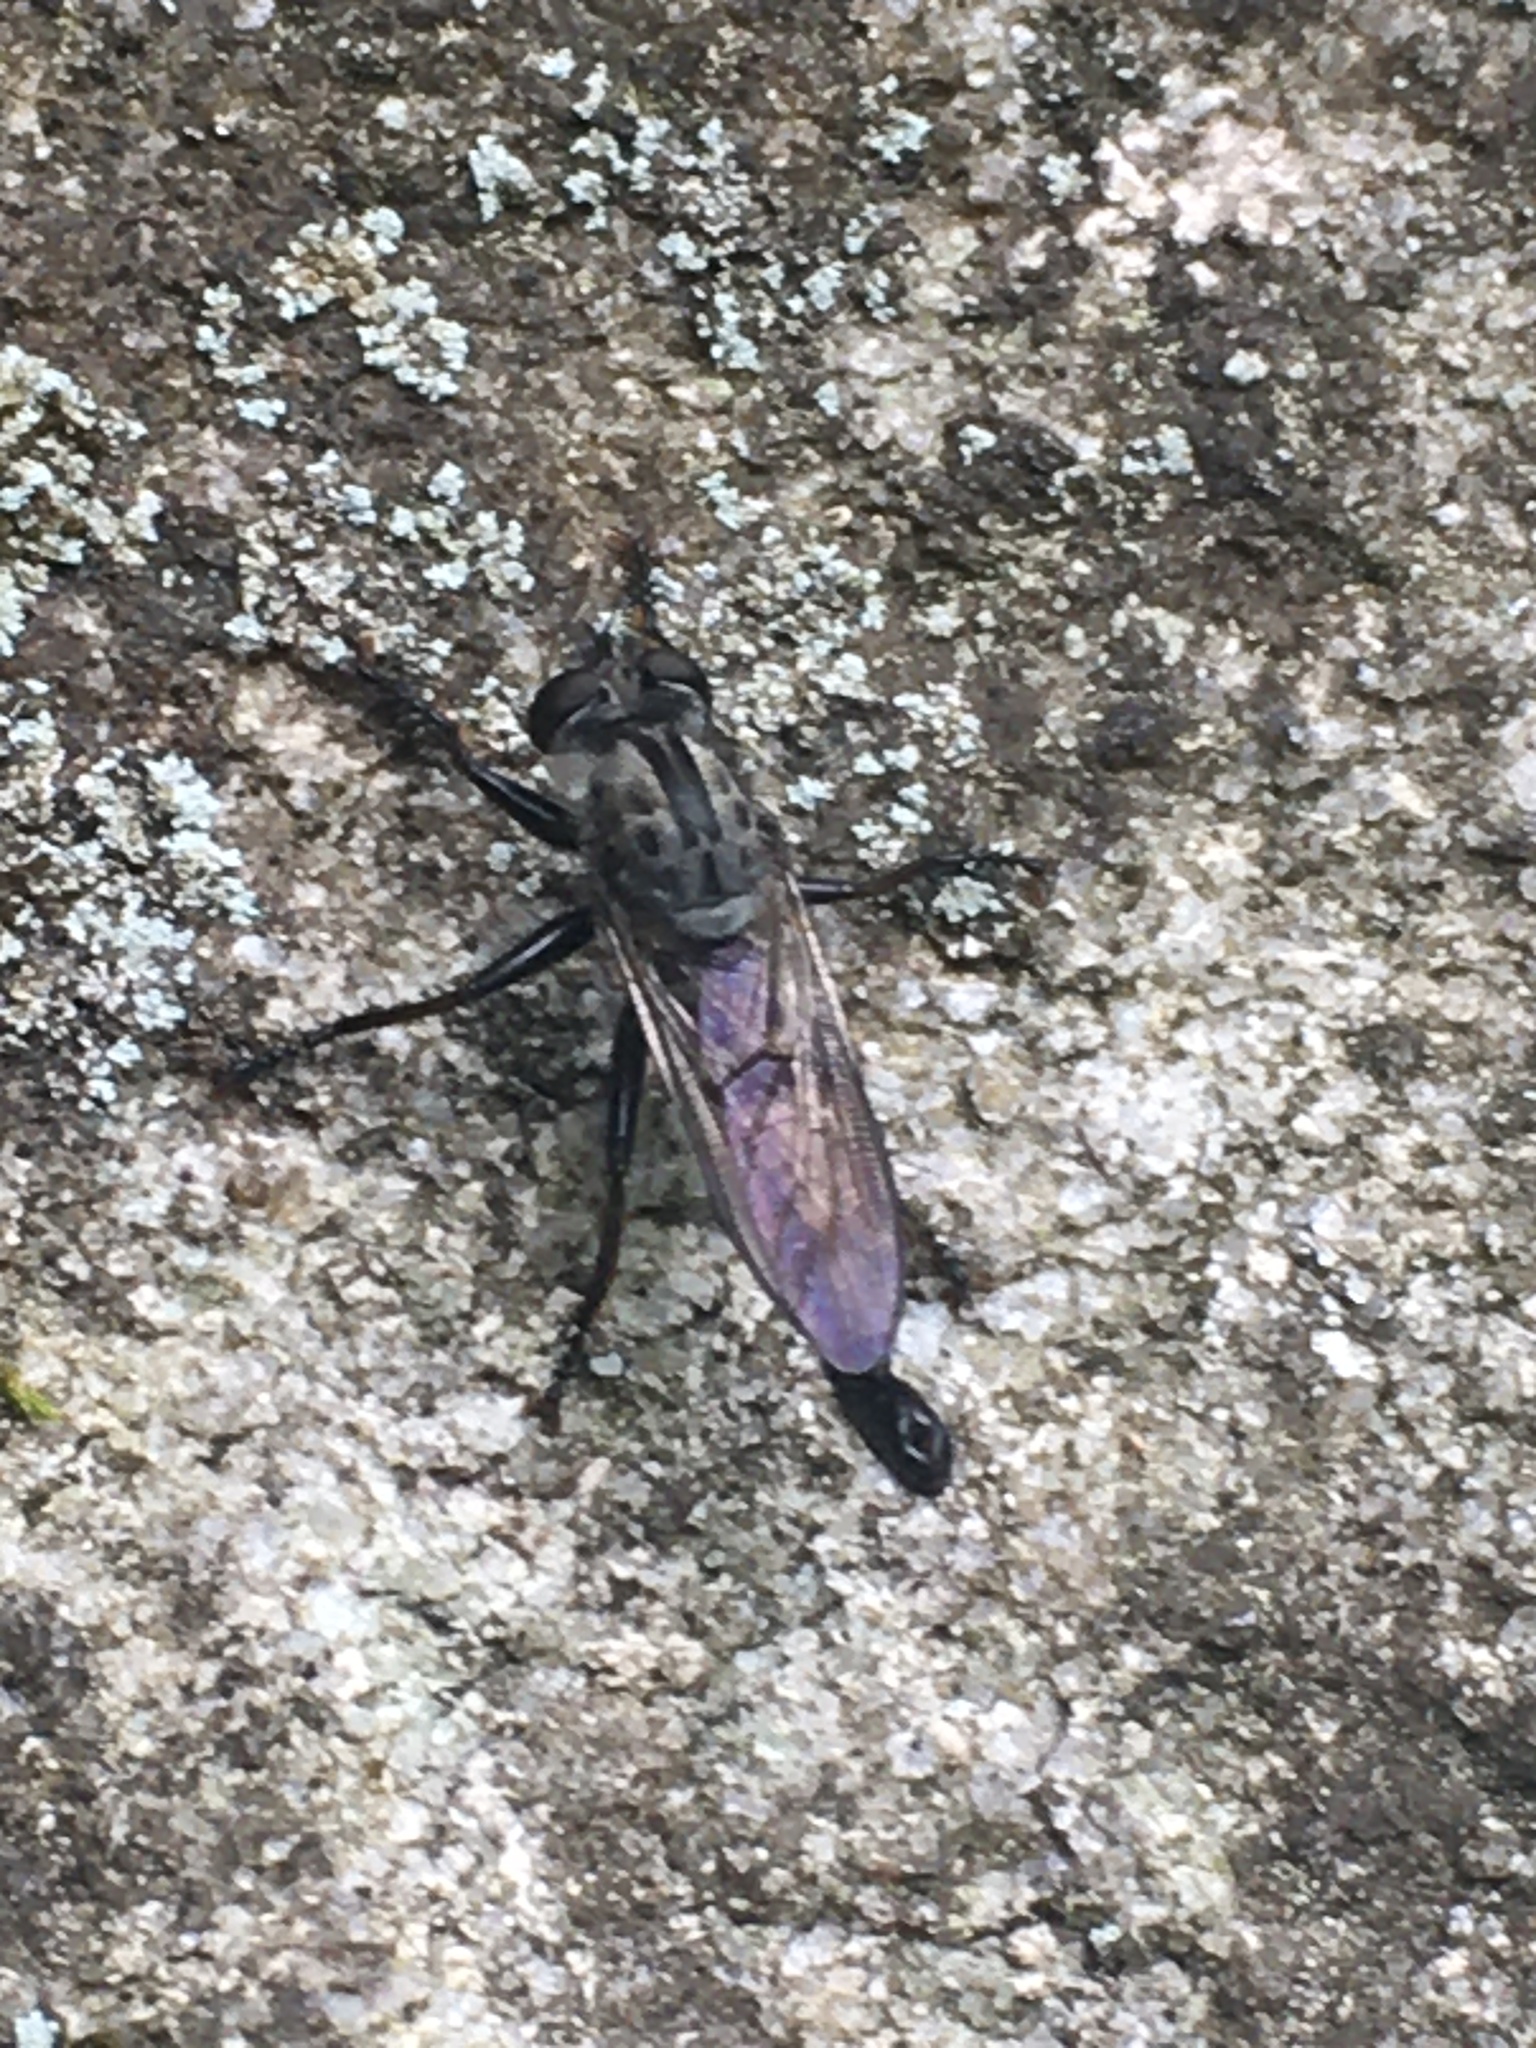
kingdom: Animalia
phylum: Arthropoda
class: Insecta
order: Diptera
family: Asilidae
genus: Efferia
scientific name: Efferia aestuans
